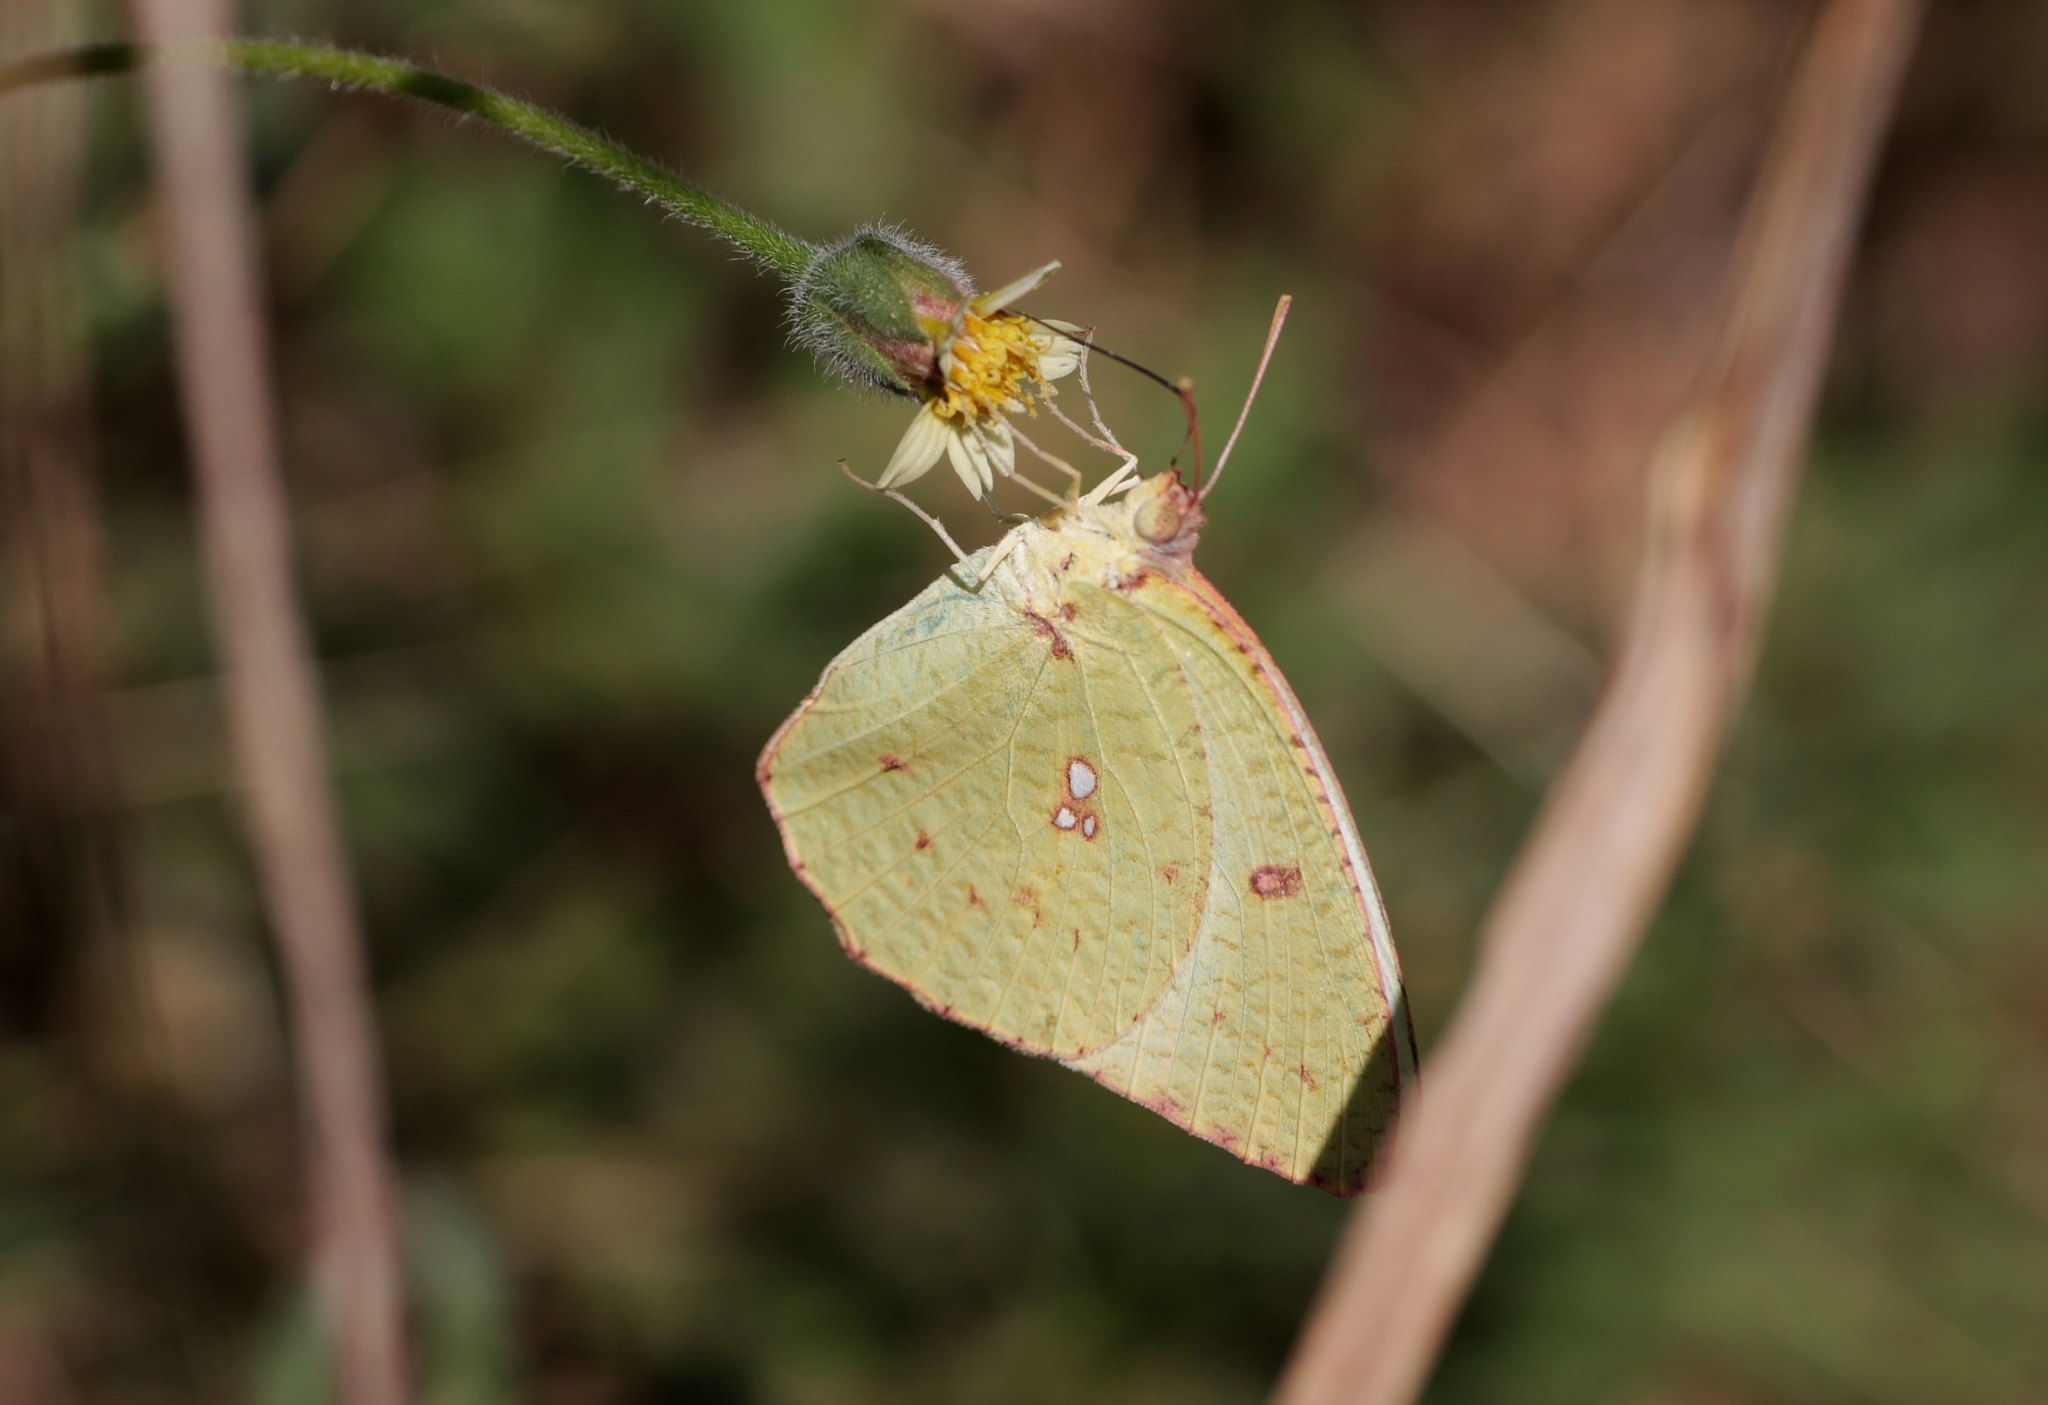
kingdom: Animalia
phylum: Arthropoda
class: Insecta
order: Lepidoptera
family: Pieridae
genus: Catopsilia
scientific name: Catopsilia pyranthe
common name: Mottled emigrant
